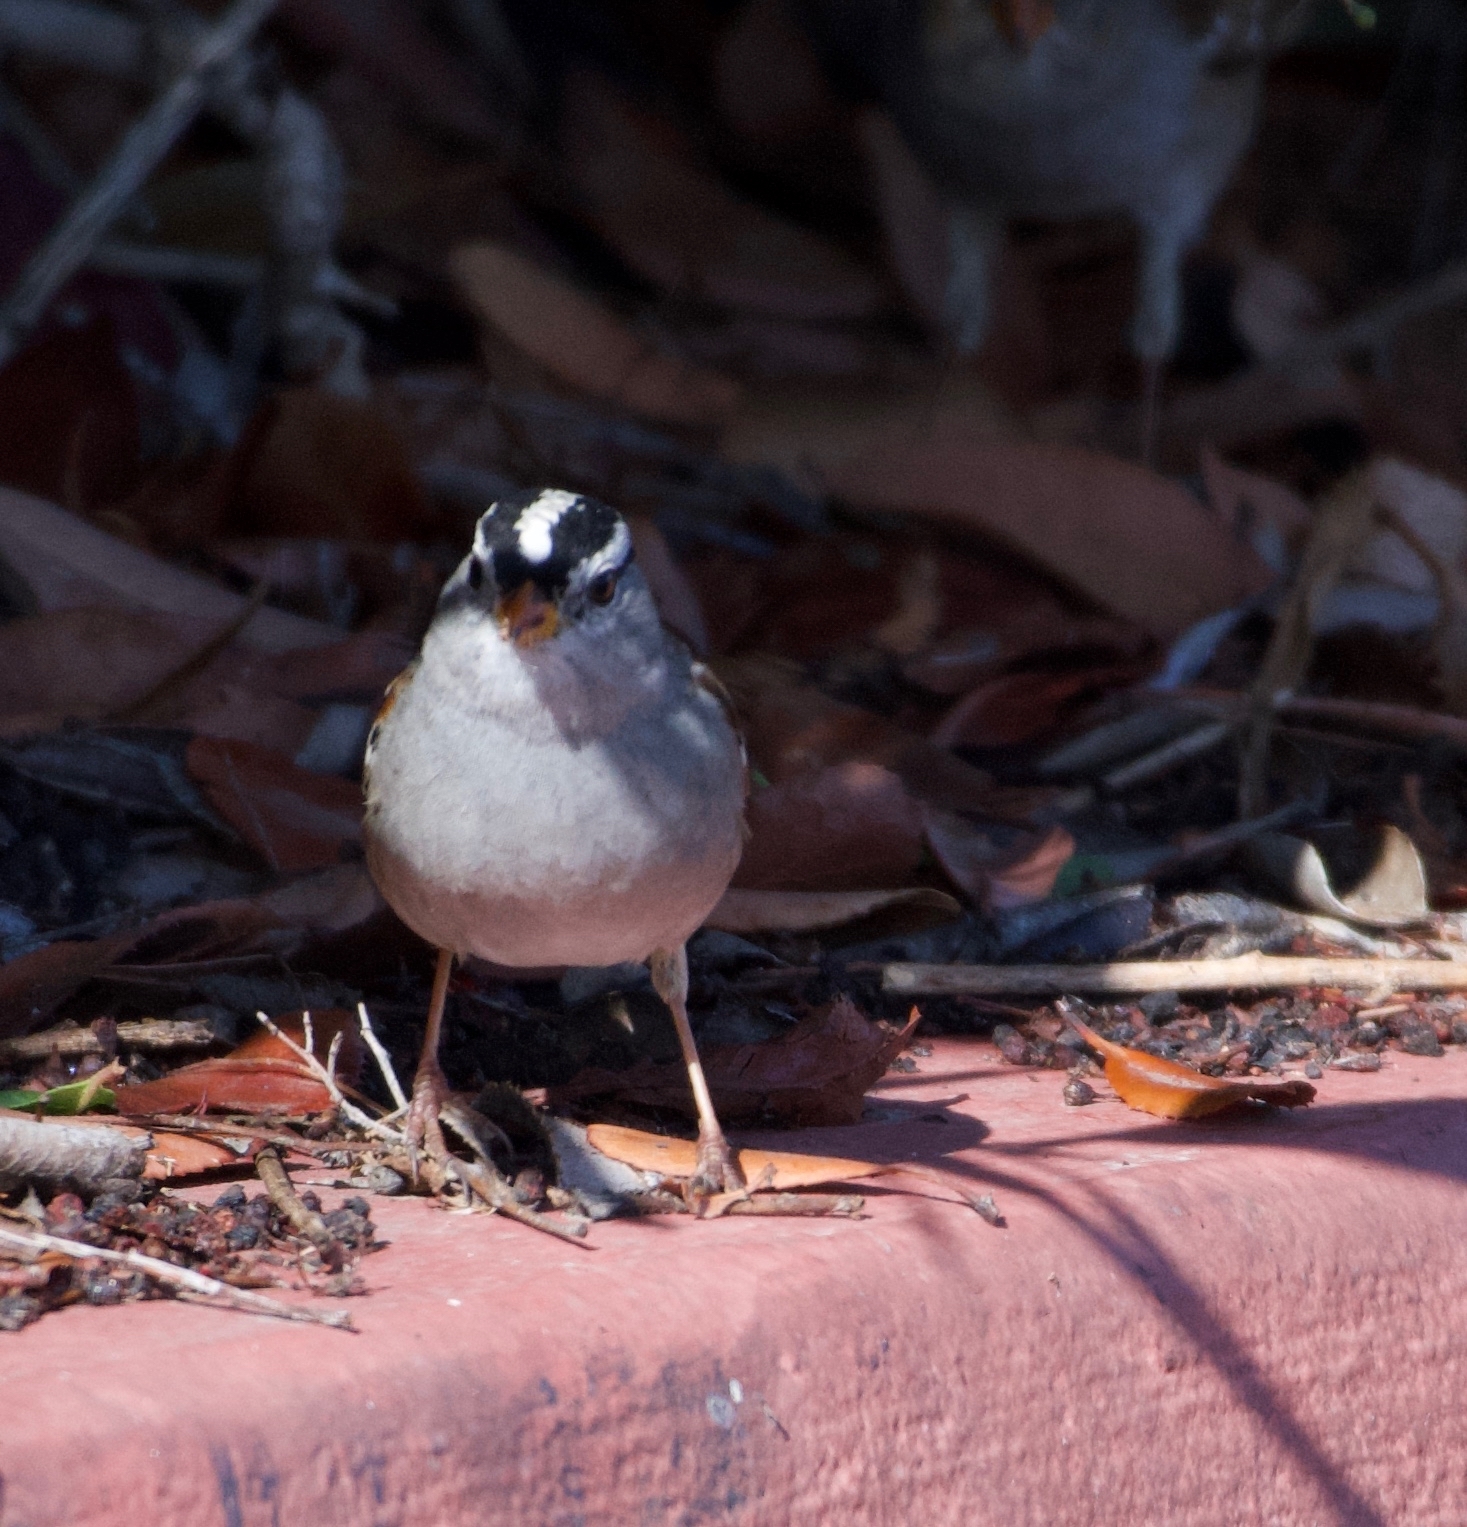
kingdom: Animalia
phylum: Chordata
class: Aves
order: Passeriformes
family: Passerellidae
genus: Zonotrichia
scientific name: Zonotrichia leucophrys
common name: White-crowned sparrow
